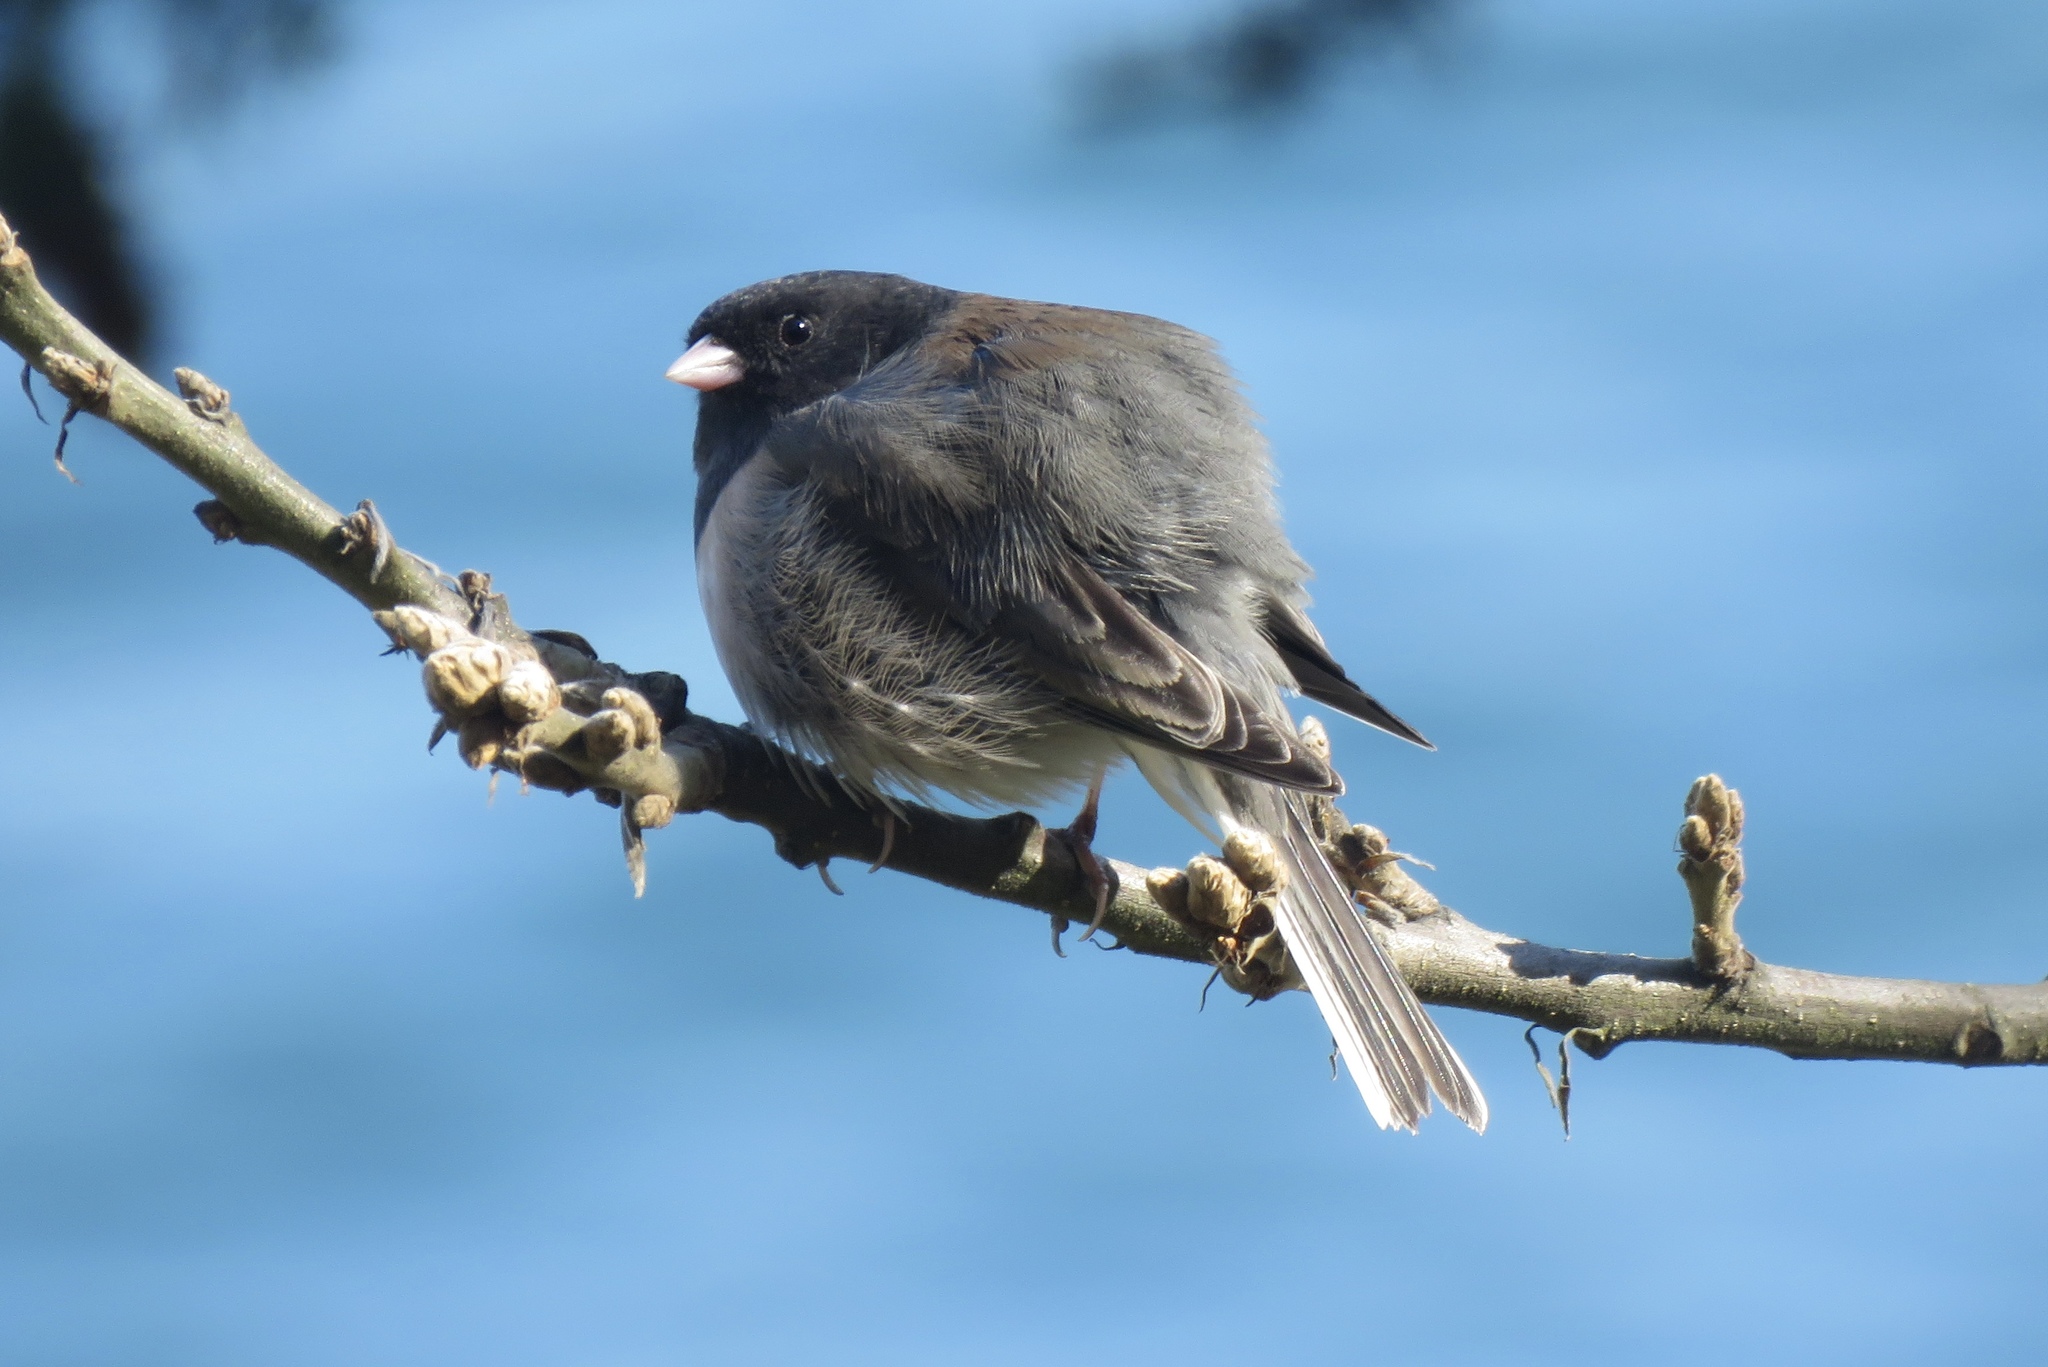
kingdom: Animalia
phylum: Chordata
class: Aves
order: Passeriformes
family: Passerellidae
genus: Junco
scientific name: Junco hyemalis
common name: Dark-eyed junco
